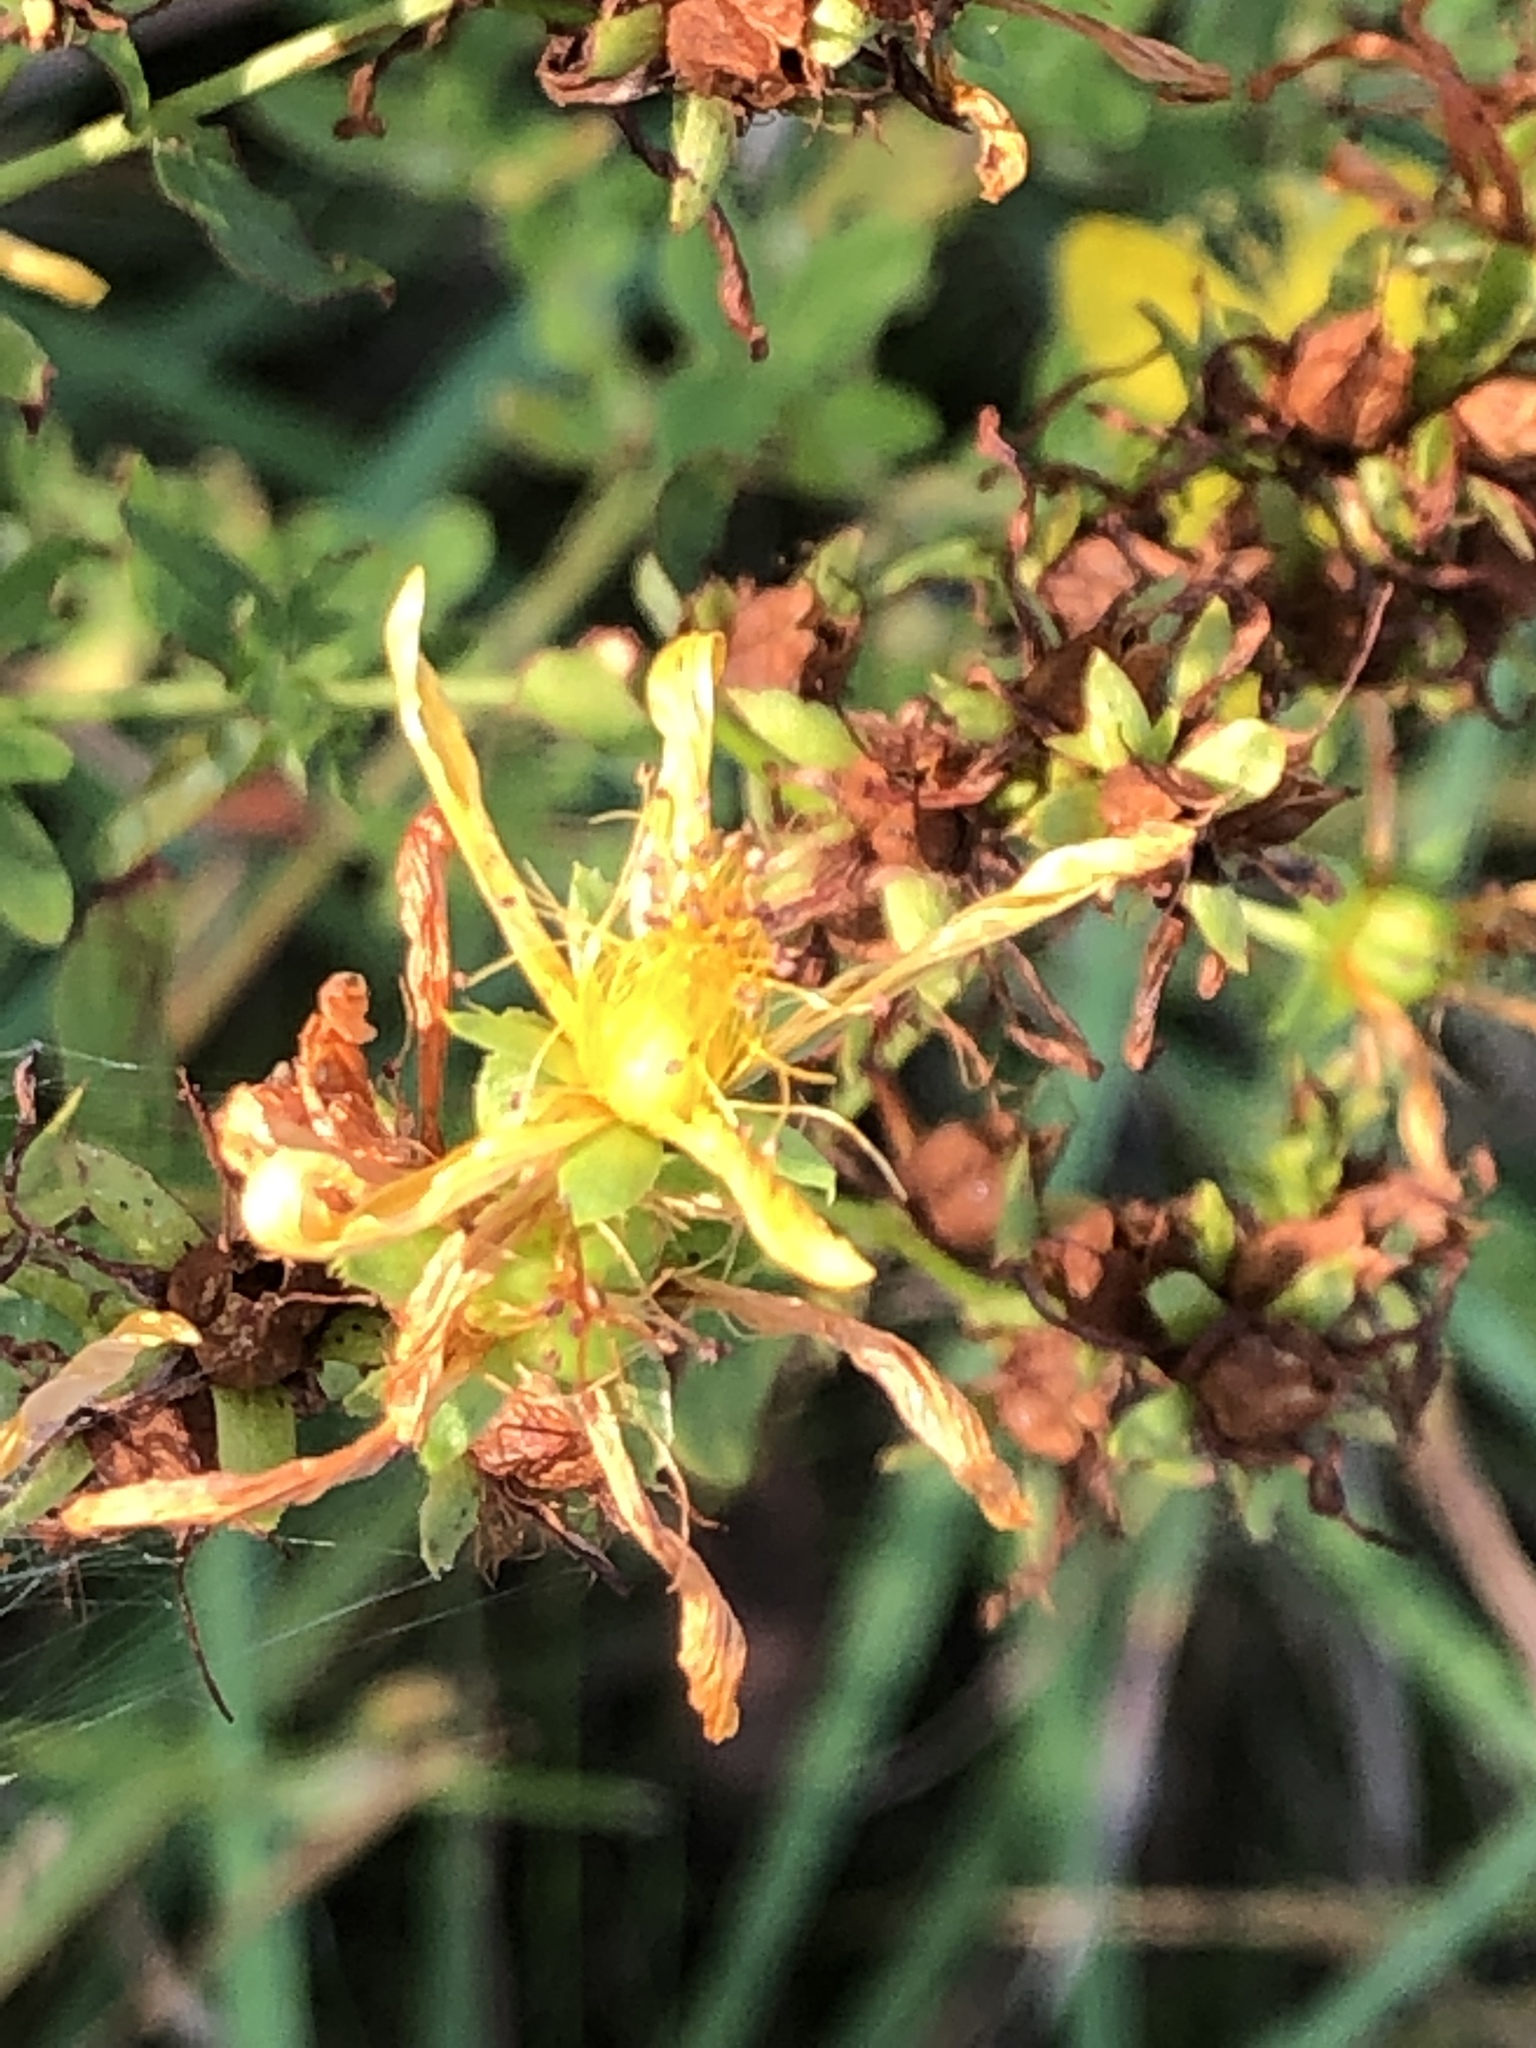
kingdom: Plantae
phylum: Tracheophyta
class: Magnoliopsida
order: Malpighiales
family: Hypericaceae
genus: Hypericum
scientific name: Hypericum perforatum
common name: Common st. johnswort
